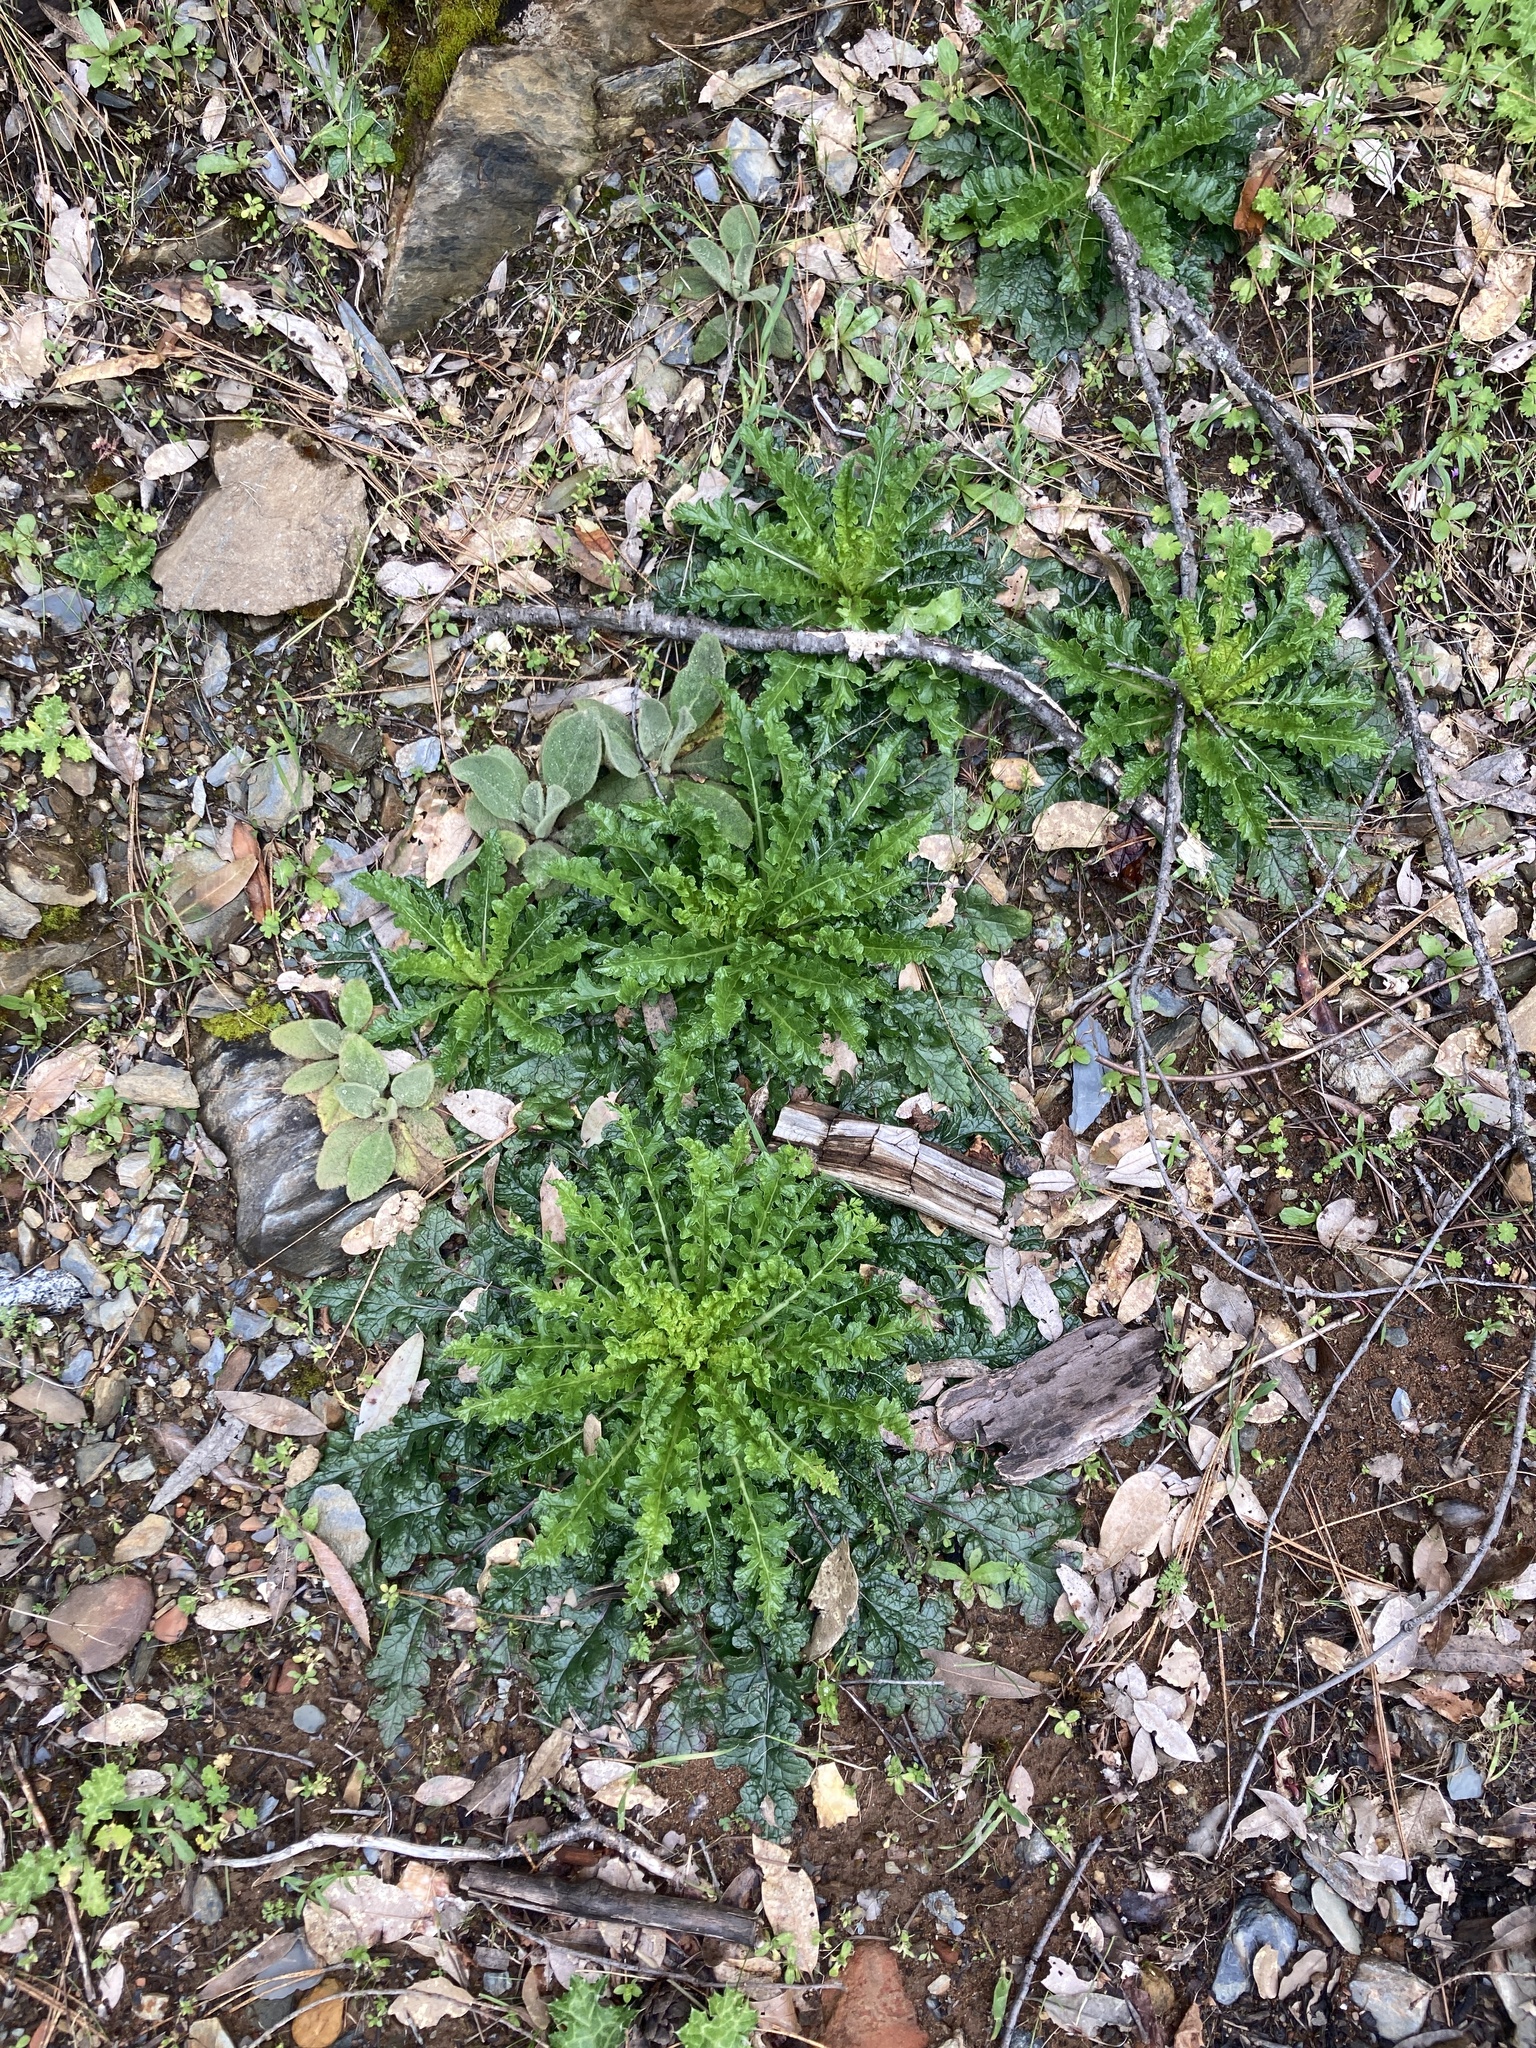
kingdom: Plantae
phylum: Tracheophyta
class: Magnoliopsida
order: Lamiales
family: Scrophulariaceae
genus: Verbascum
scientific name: Verbascum blattaria
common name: Moth mullein
